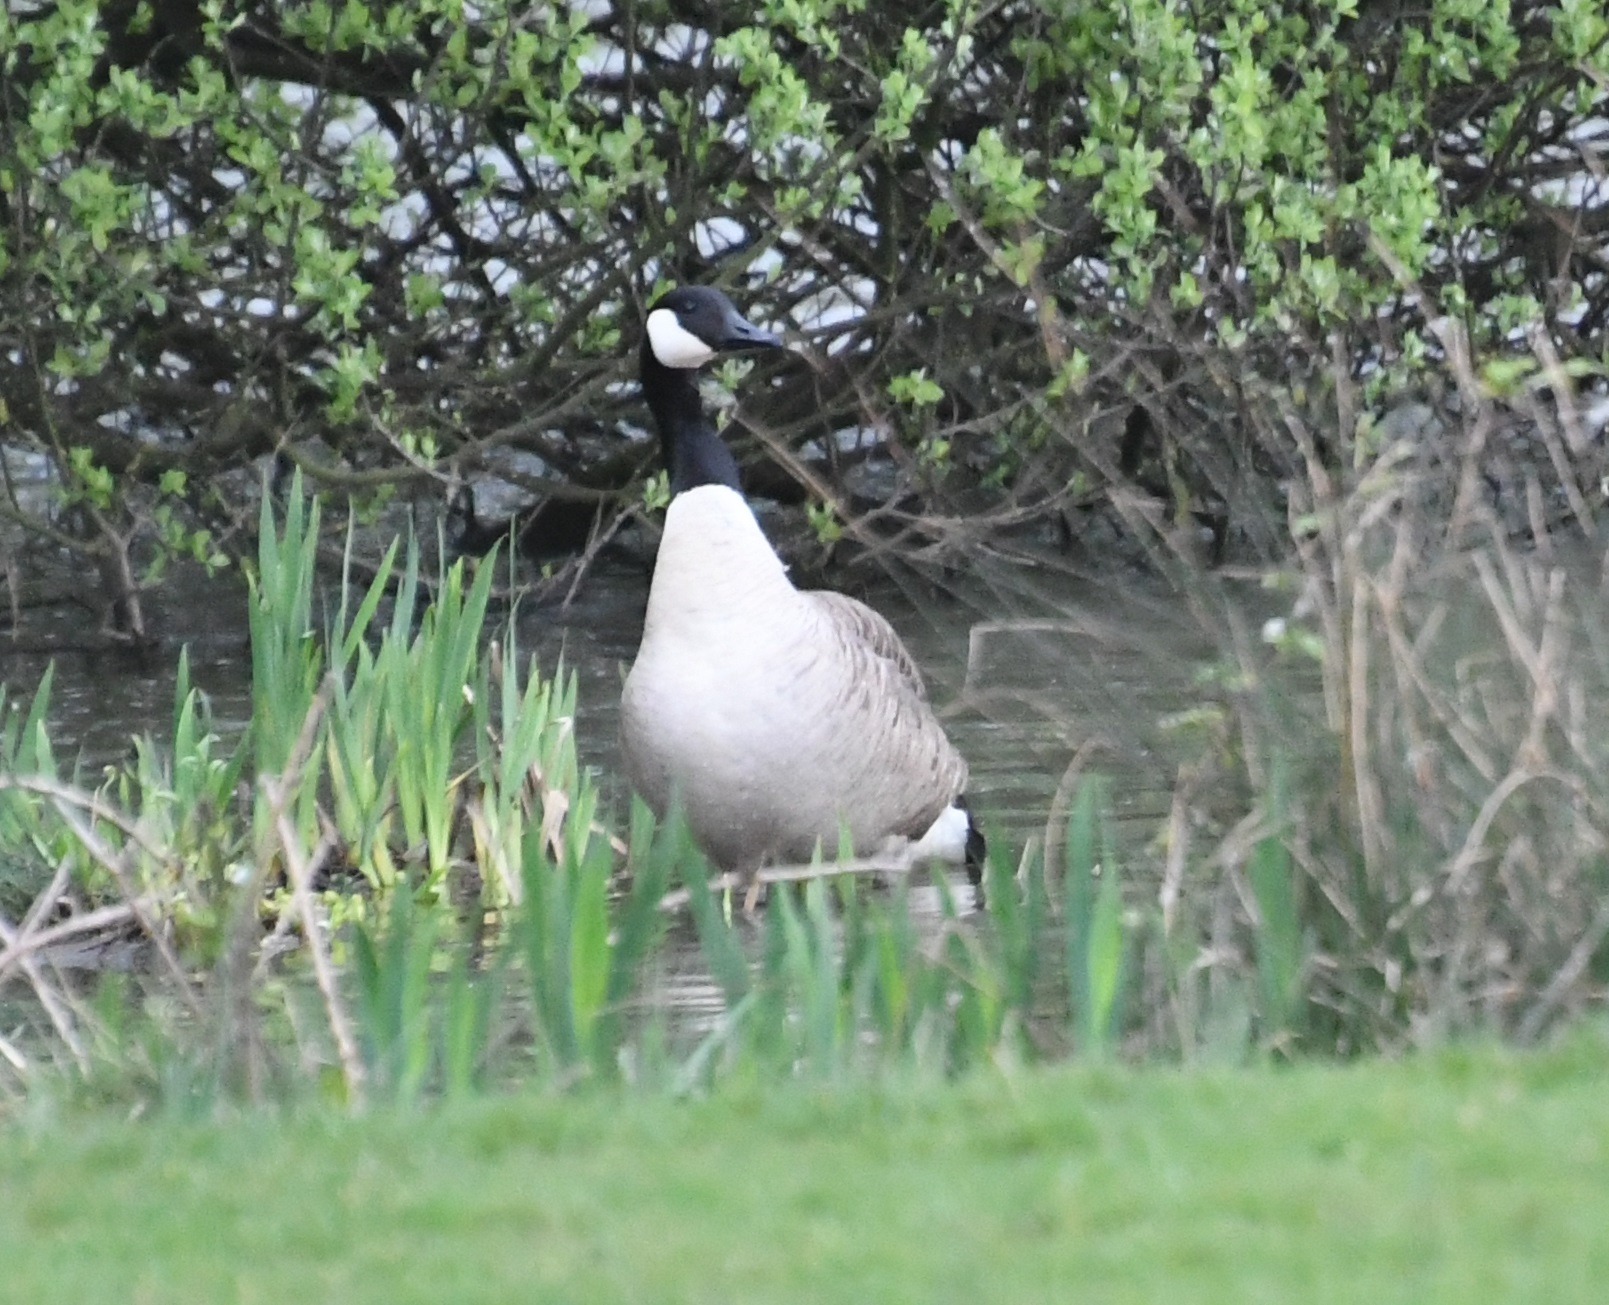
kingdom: Animalia
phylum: Chordata
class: Aves
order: Anseriformes
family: Anatidae
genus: Branta
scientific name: Branta canadensis
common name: Canada goose
